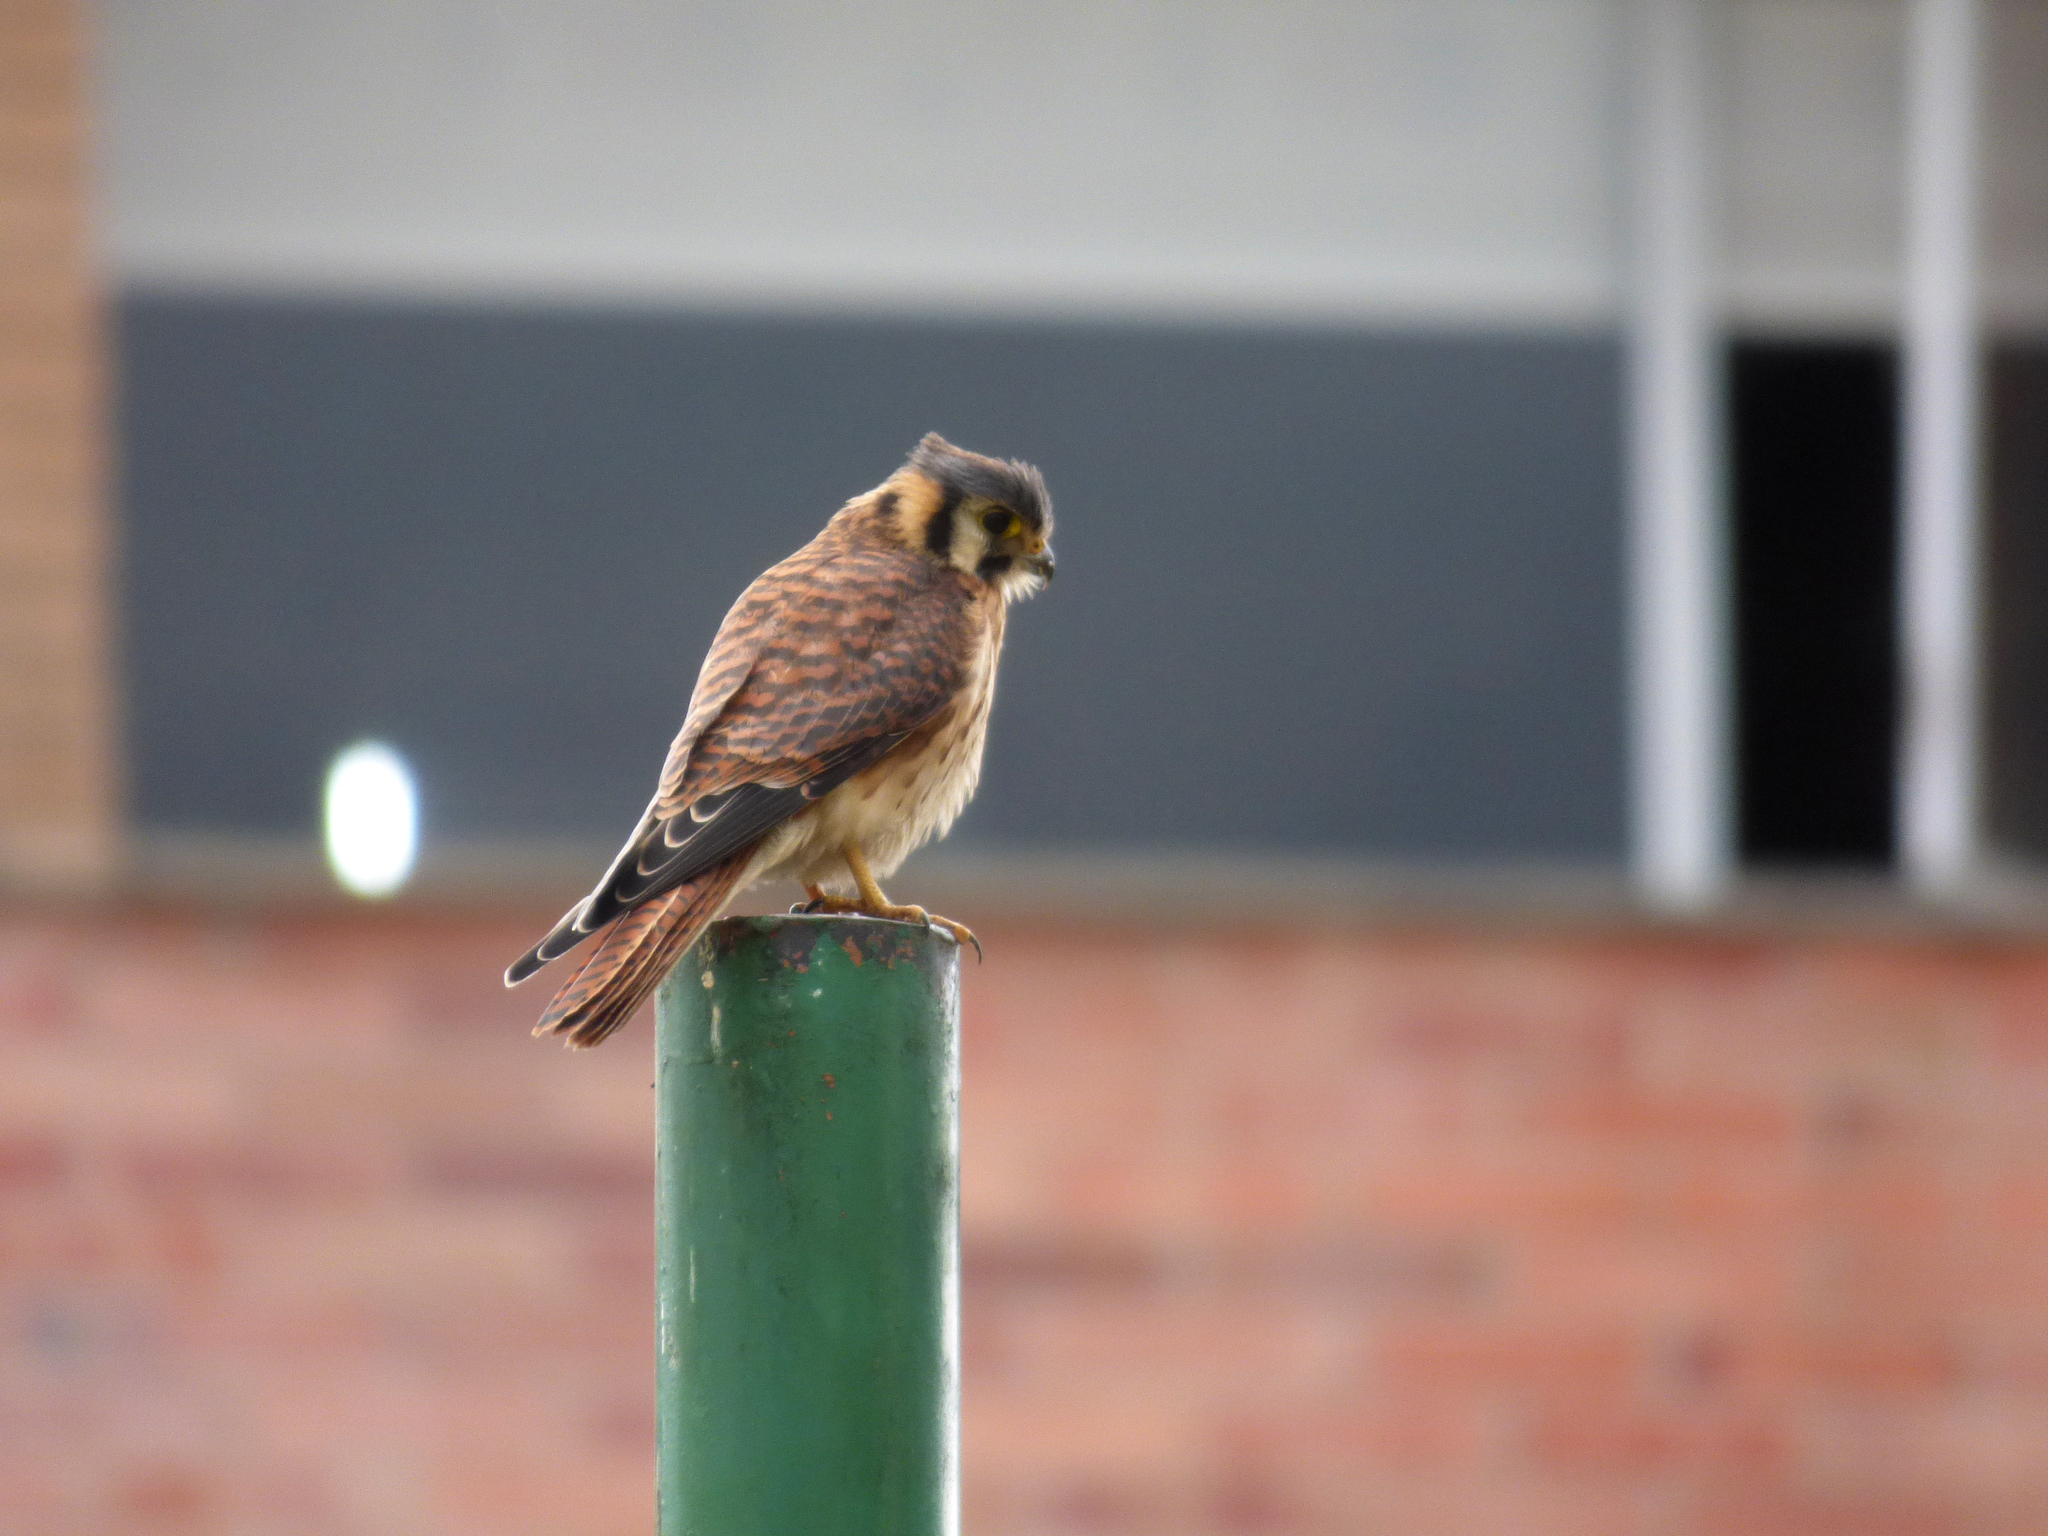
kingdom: Animalia
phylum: Chordata
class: Aves
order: Falconiformes
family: Falconidae
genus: Falco
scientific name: Falco sparverius
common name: American kestrel
